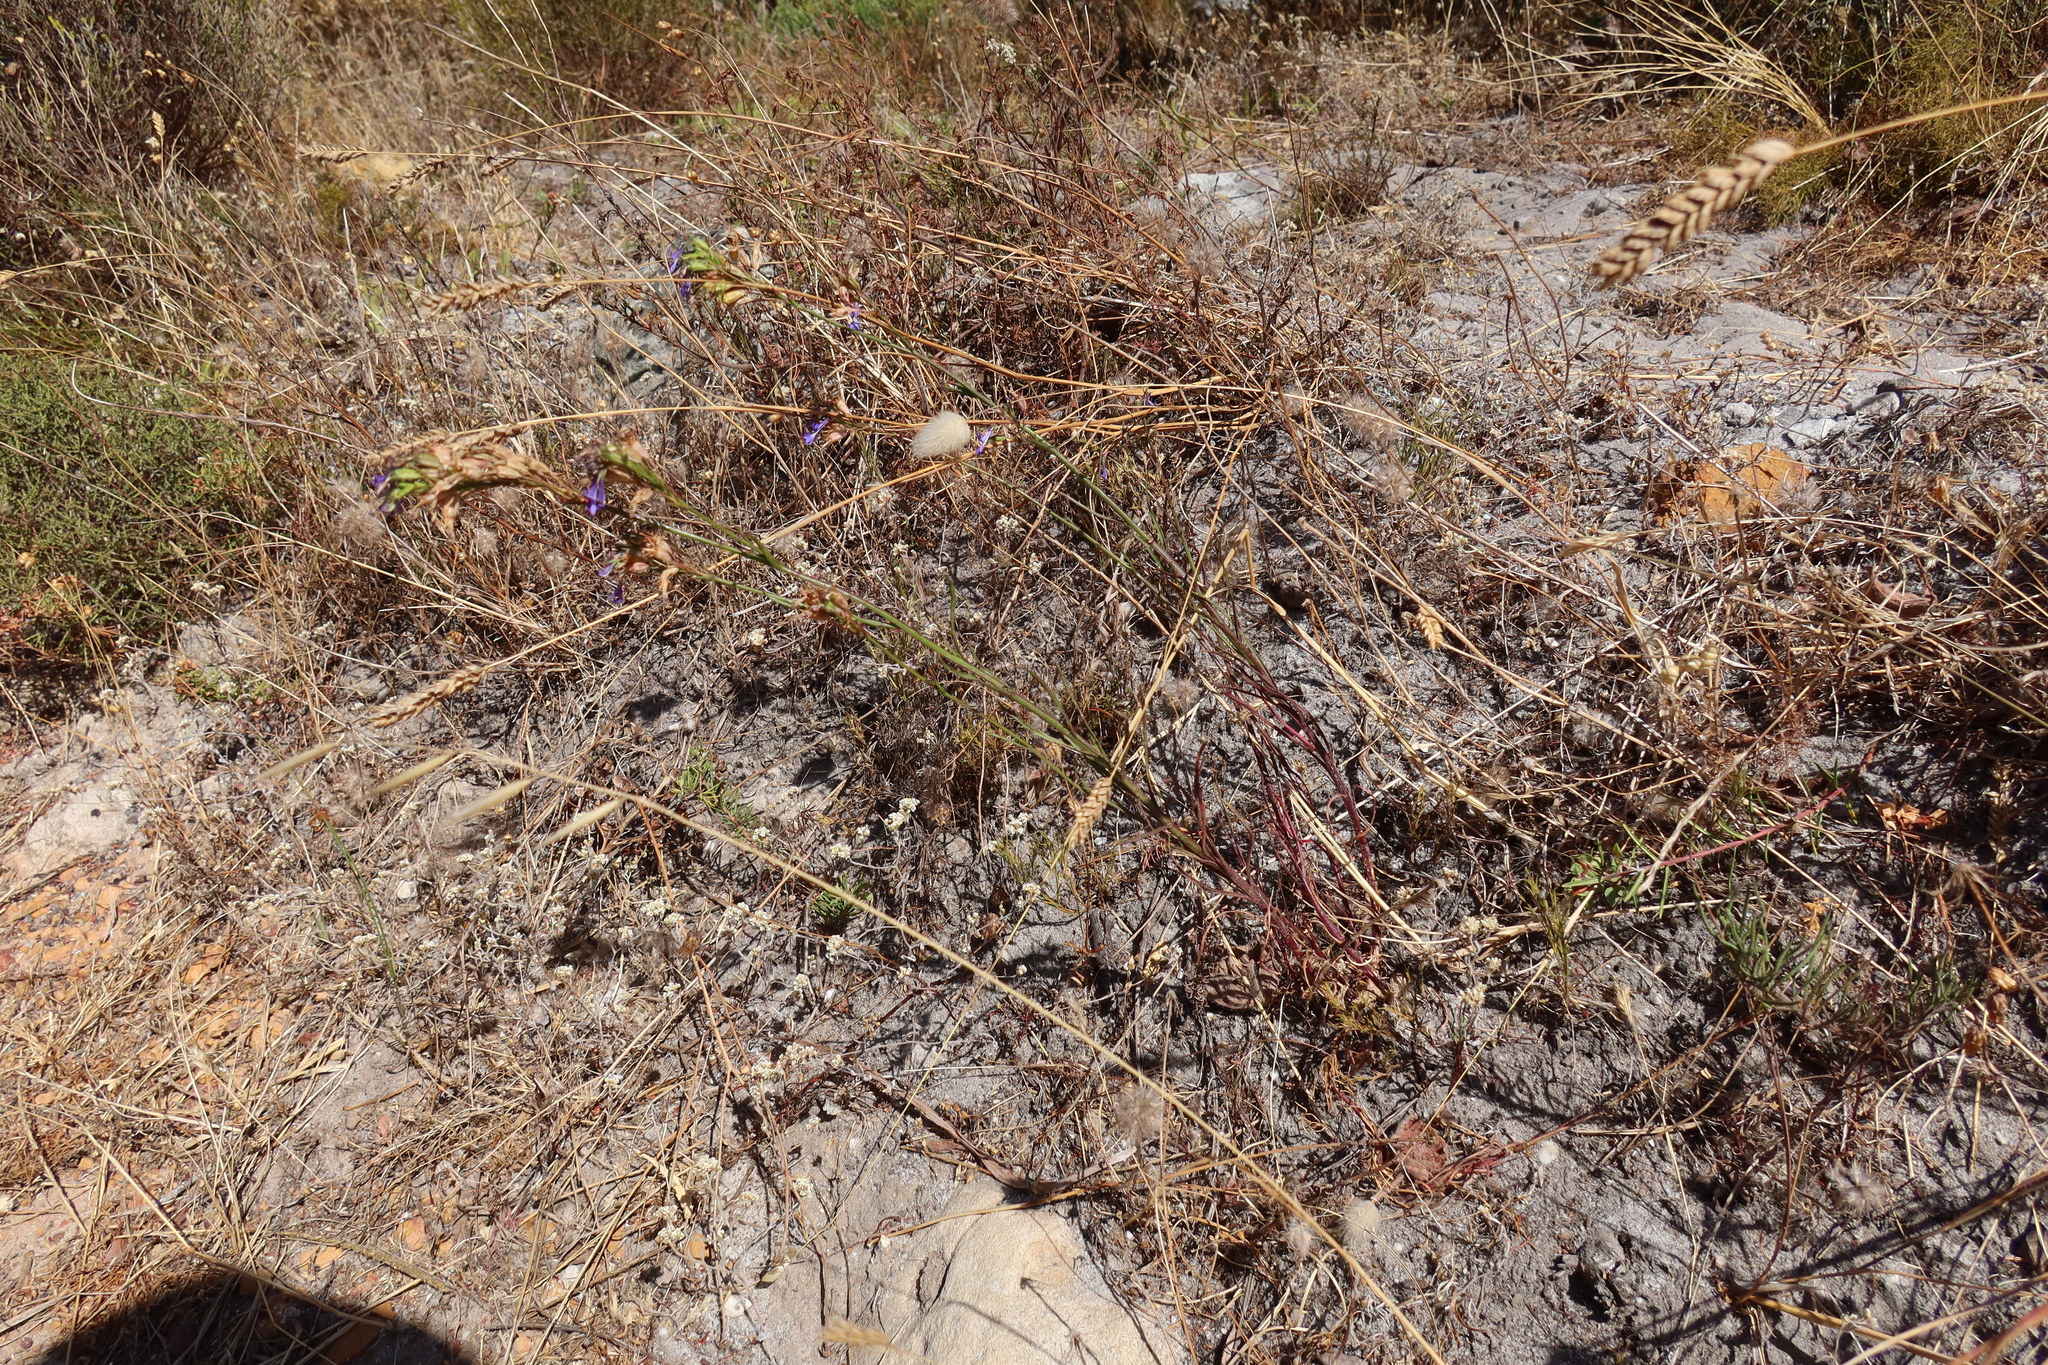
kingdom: Plantae
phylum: Tracheophyta
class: Magnoliopsida
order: Asterales
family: Campanulaceae
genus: Lobelia
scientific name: Lobelia comosa
